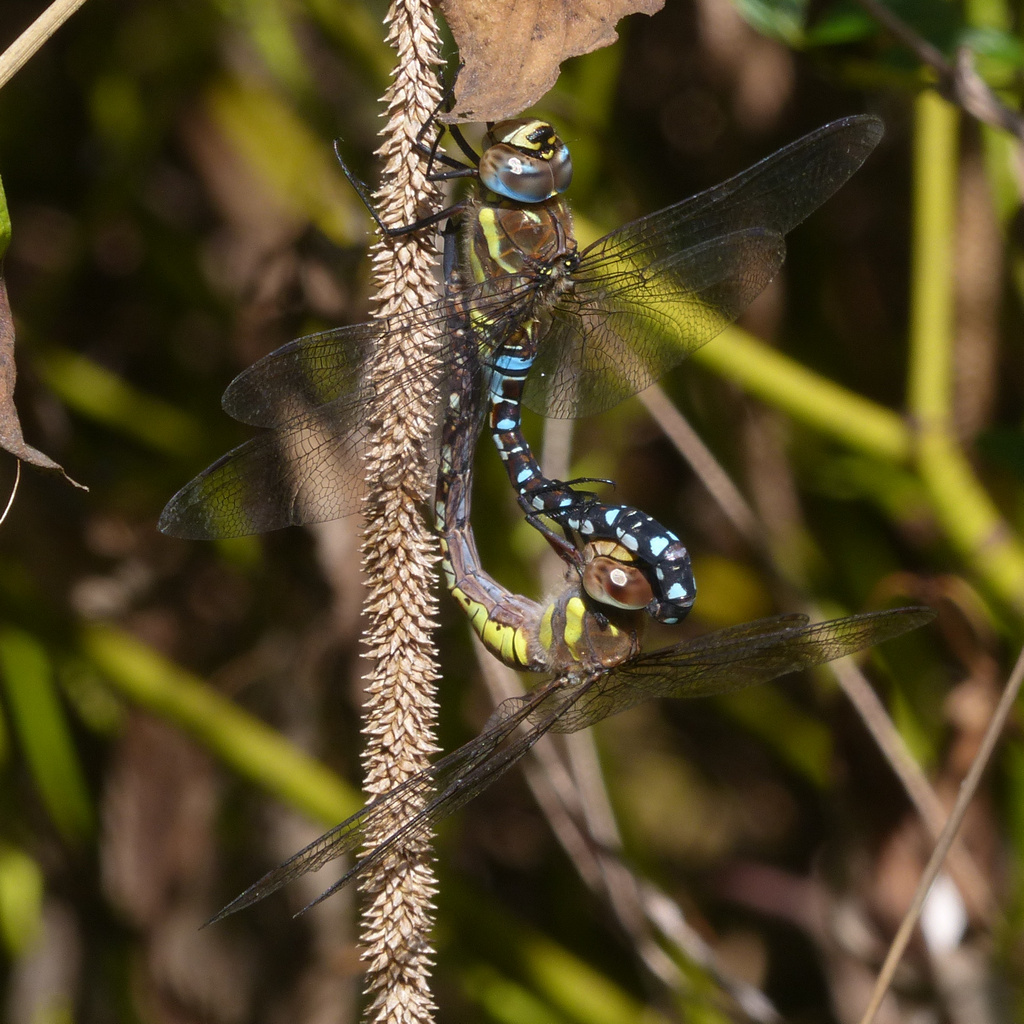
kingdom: Animalia
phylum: Arthropoda
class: Insecta
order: Odonata
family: Aeshnidae
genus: Aeshna
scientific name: Aeshna mixta
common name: Migrant hawker
